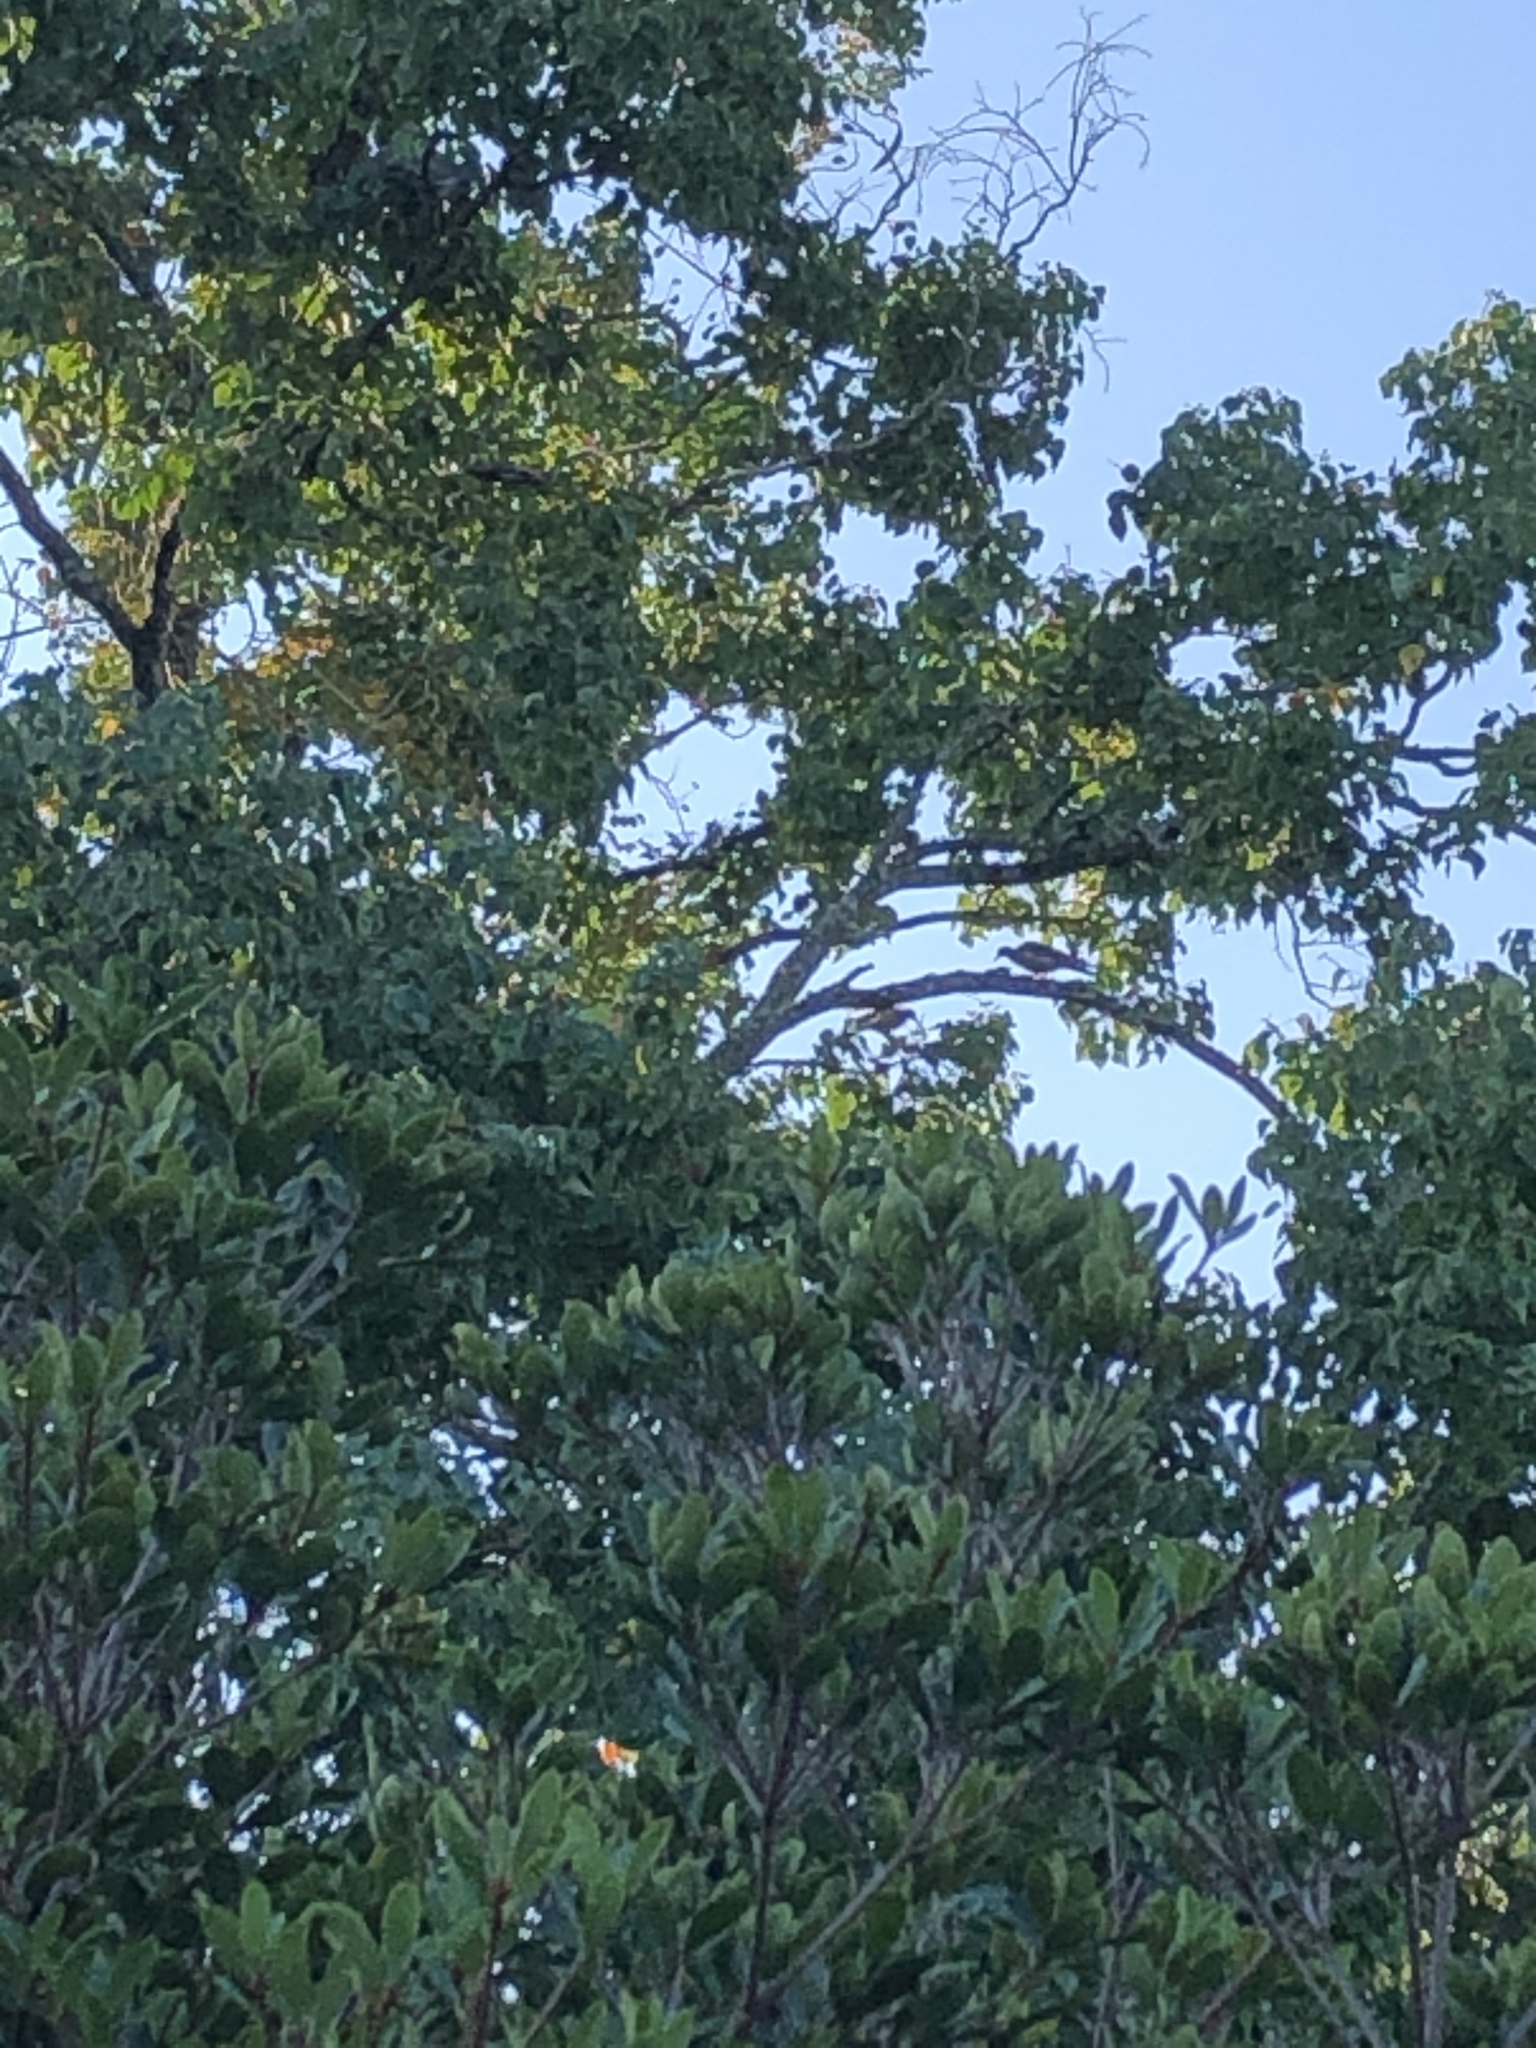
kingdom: Animalia
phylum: Chordata
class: Aves
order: Columbiformes
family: Columbidae
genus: Zenaida
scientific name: Zenaida asiatica
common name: White-winged dove
